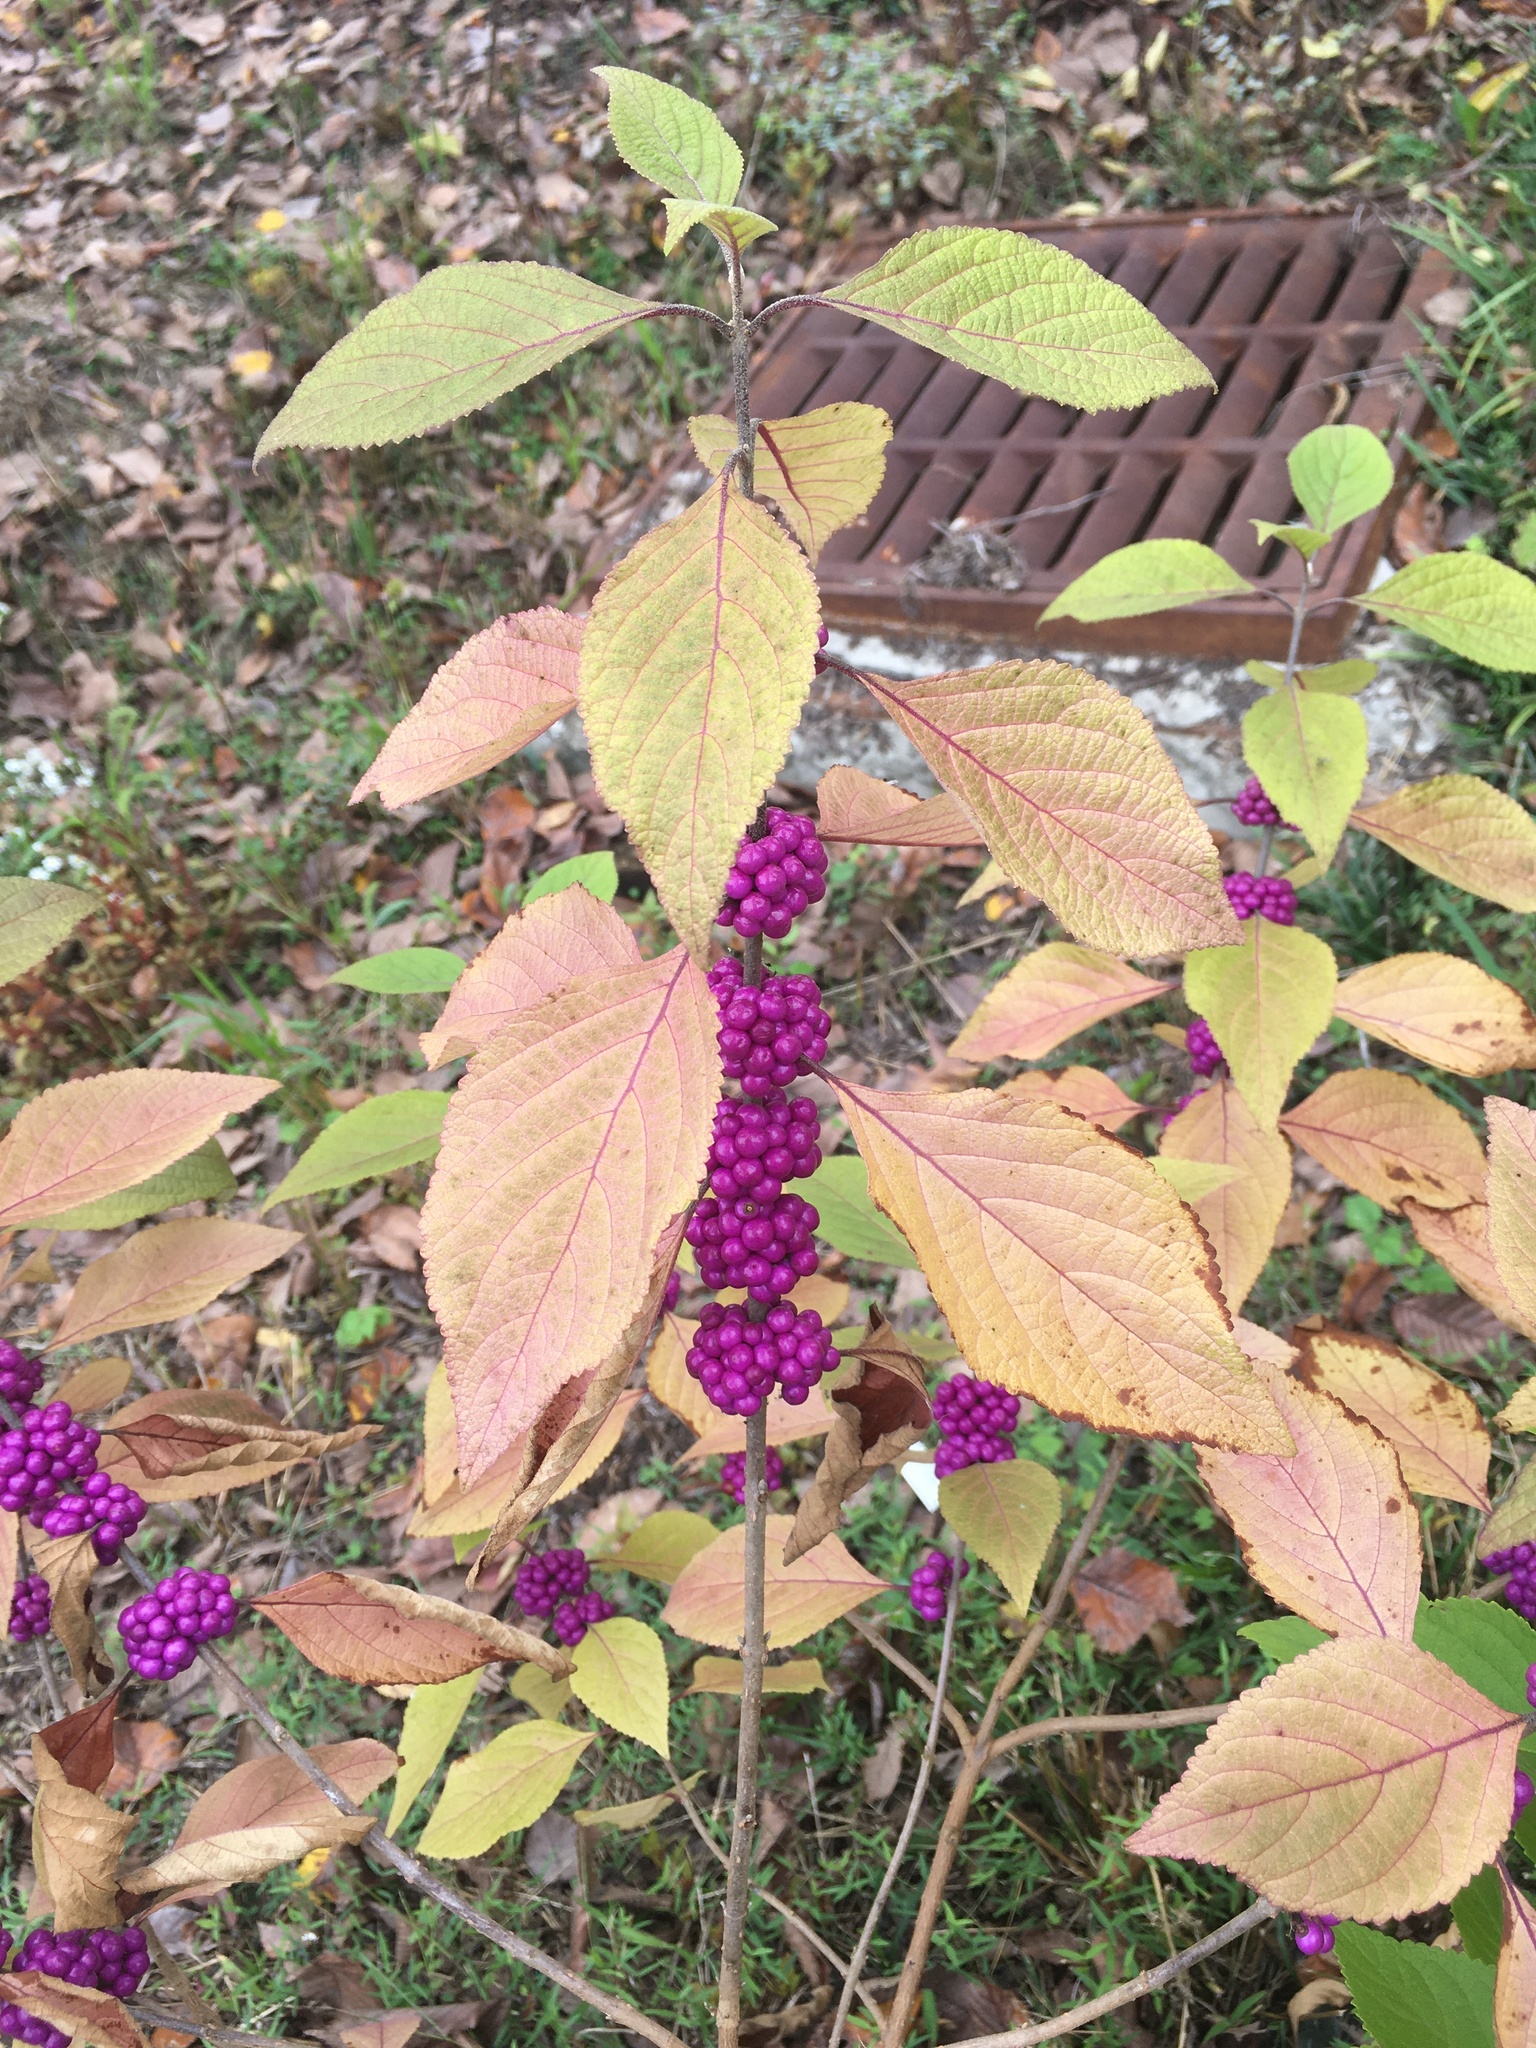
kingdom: Plantae
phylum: Tracheophyta
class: Magnoliopsida
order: Lamiales
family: Lamiaceae
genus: Callicarpa
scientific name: Callicarpa americana
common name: American beautyberry
